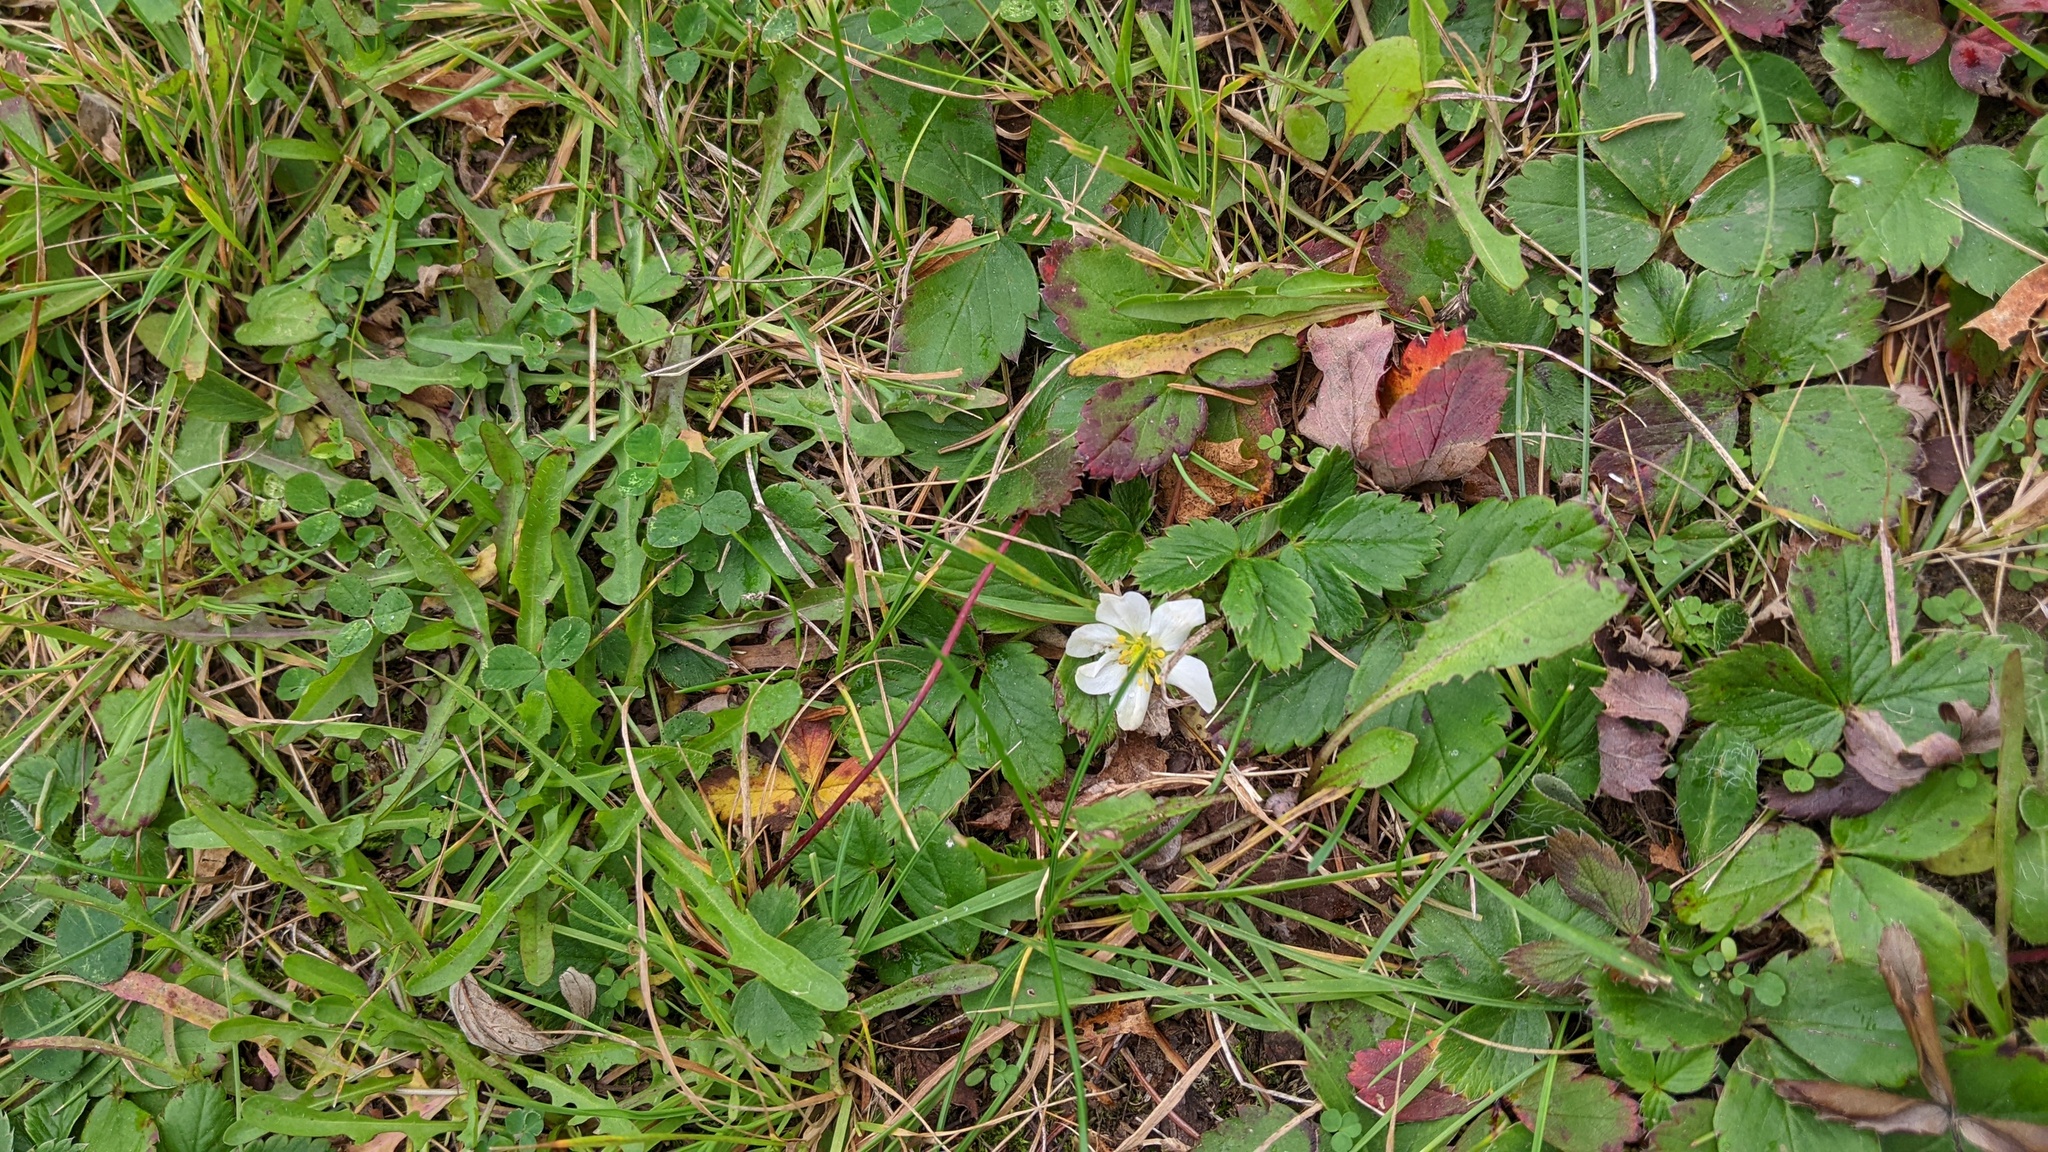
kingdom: Plantae
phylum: Tracheophyta
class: Magnoliopsida
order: Rosales
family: Rosaceae
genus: Fragaria
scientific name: Fragaria virginiana
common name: Thickleaved wild strawberry
